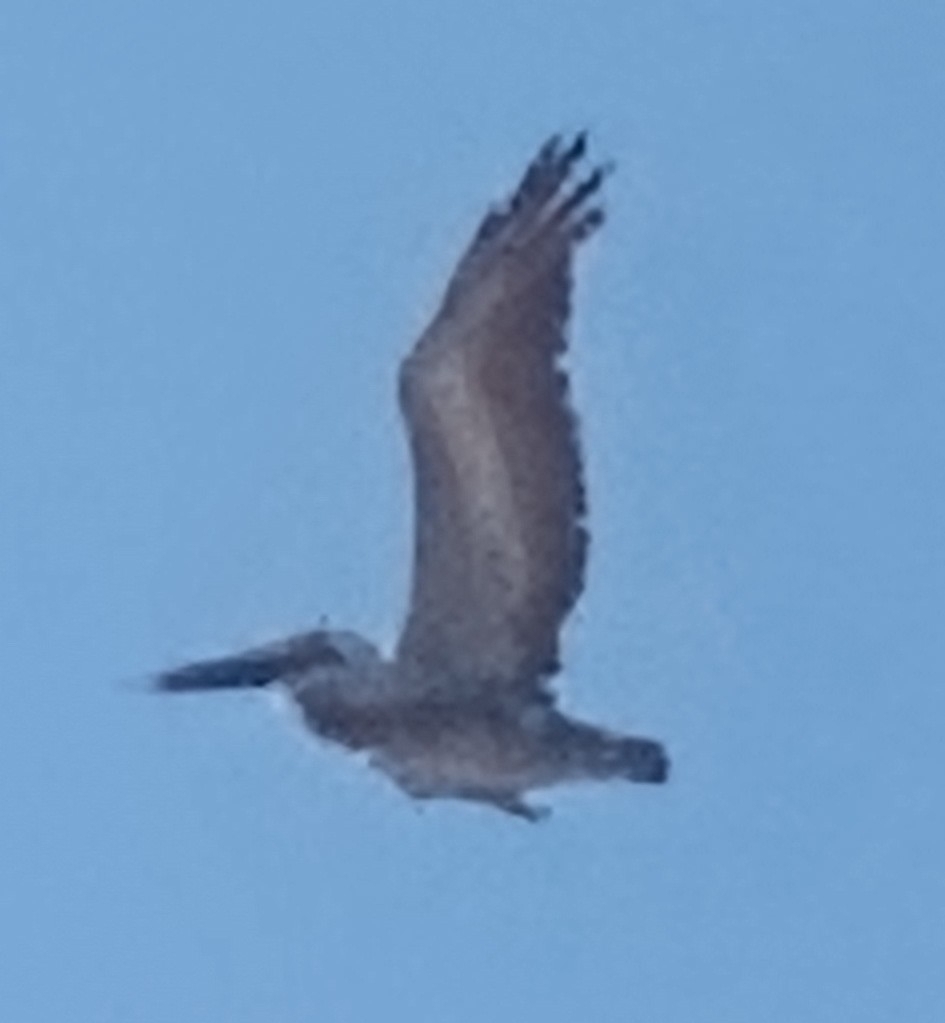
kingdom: Animalia
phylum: Chordata
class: Aves
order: Pelecaniformes
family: Pelecanidae
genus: Pelecanus
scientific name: Pelecanus occidentalis
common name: Brown pelican
